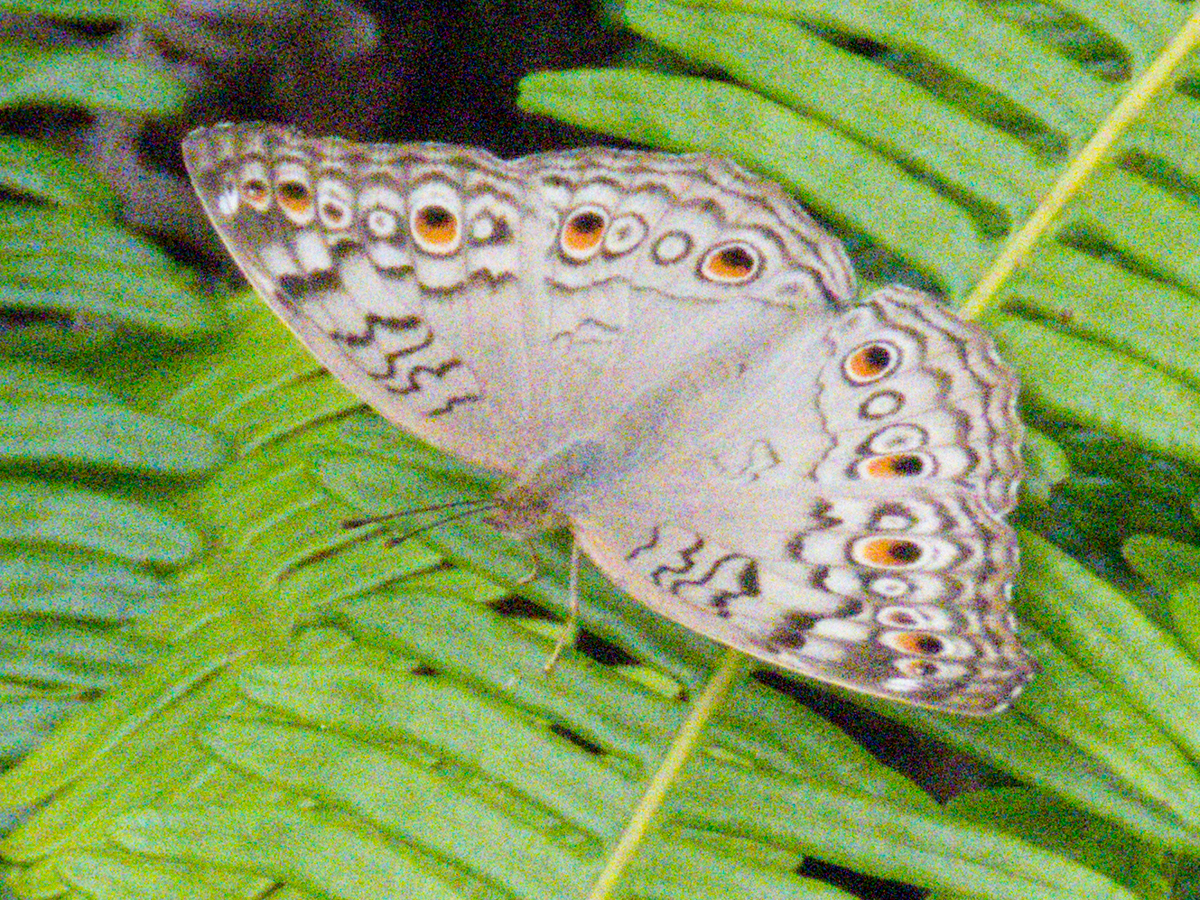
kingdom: Animalia
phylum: Arthropoda
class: Insecta
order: Lepidoptera
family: Nymphalidae
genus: Junonia
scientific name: Junonia atlites
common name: Grey pansy
